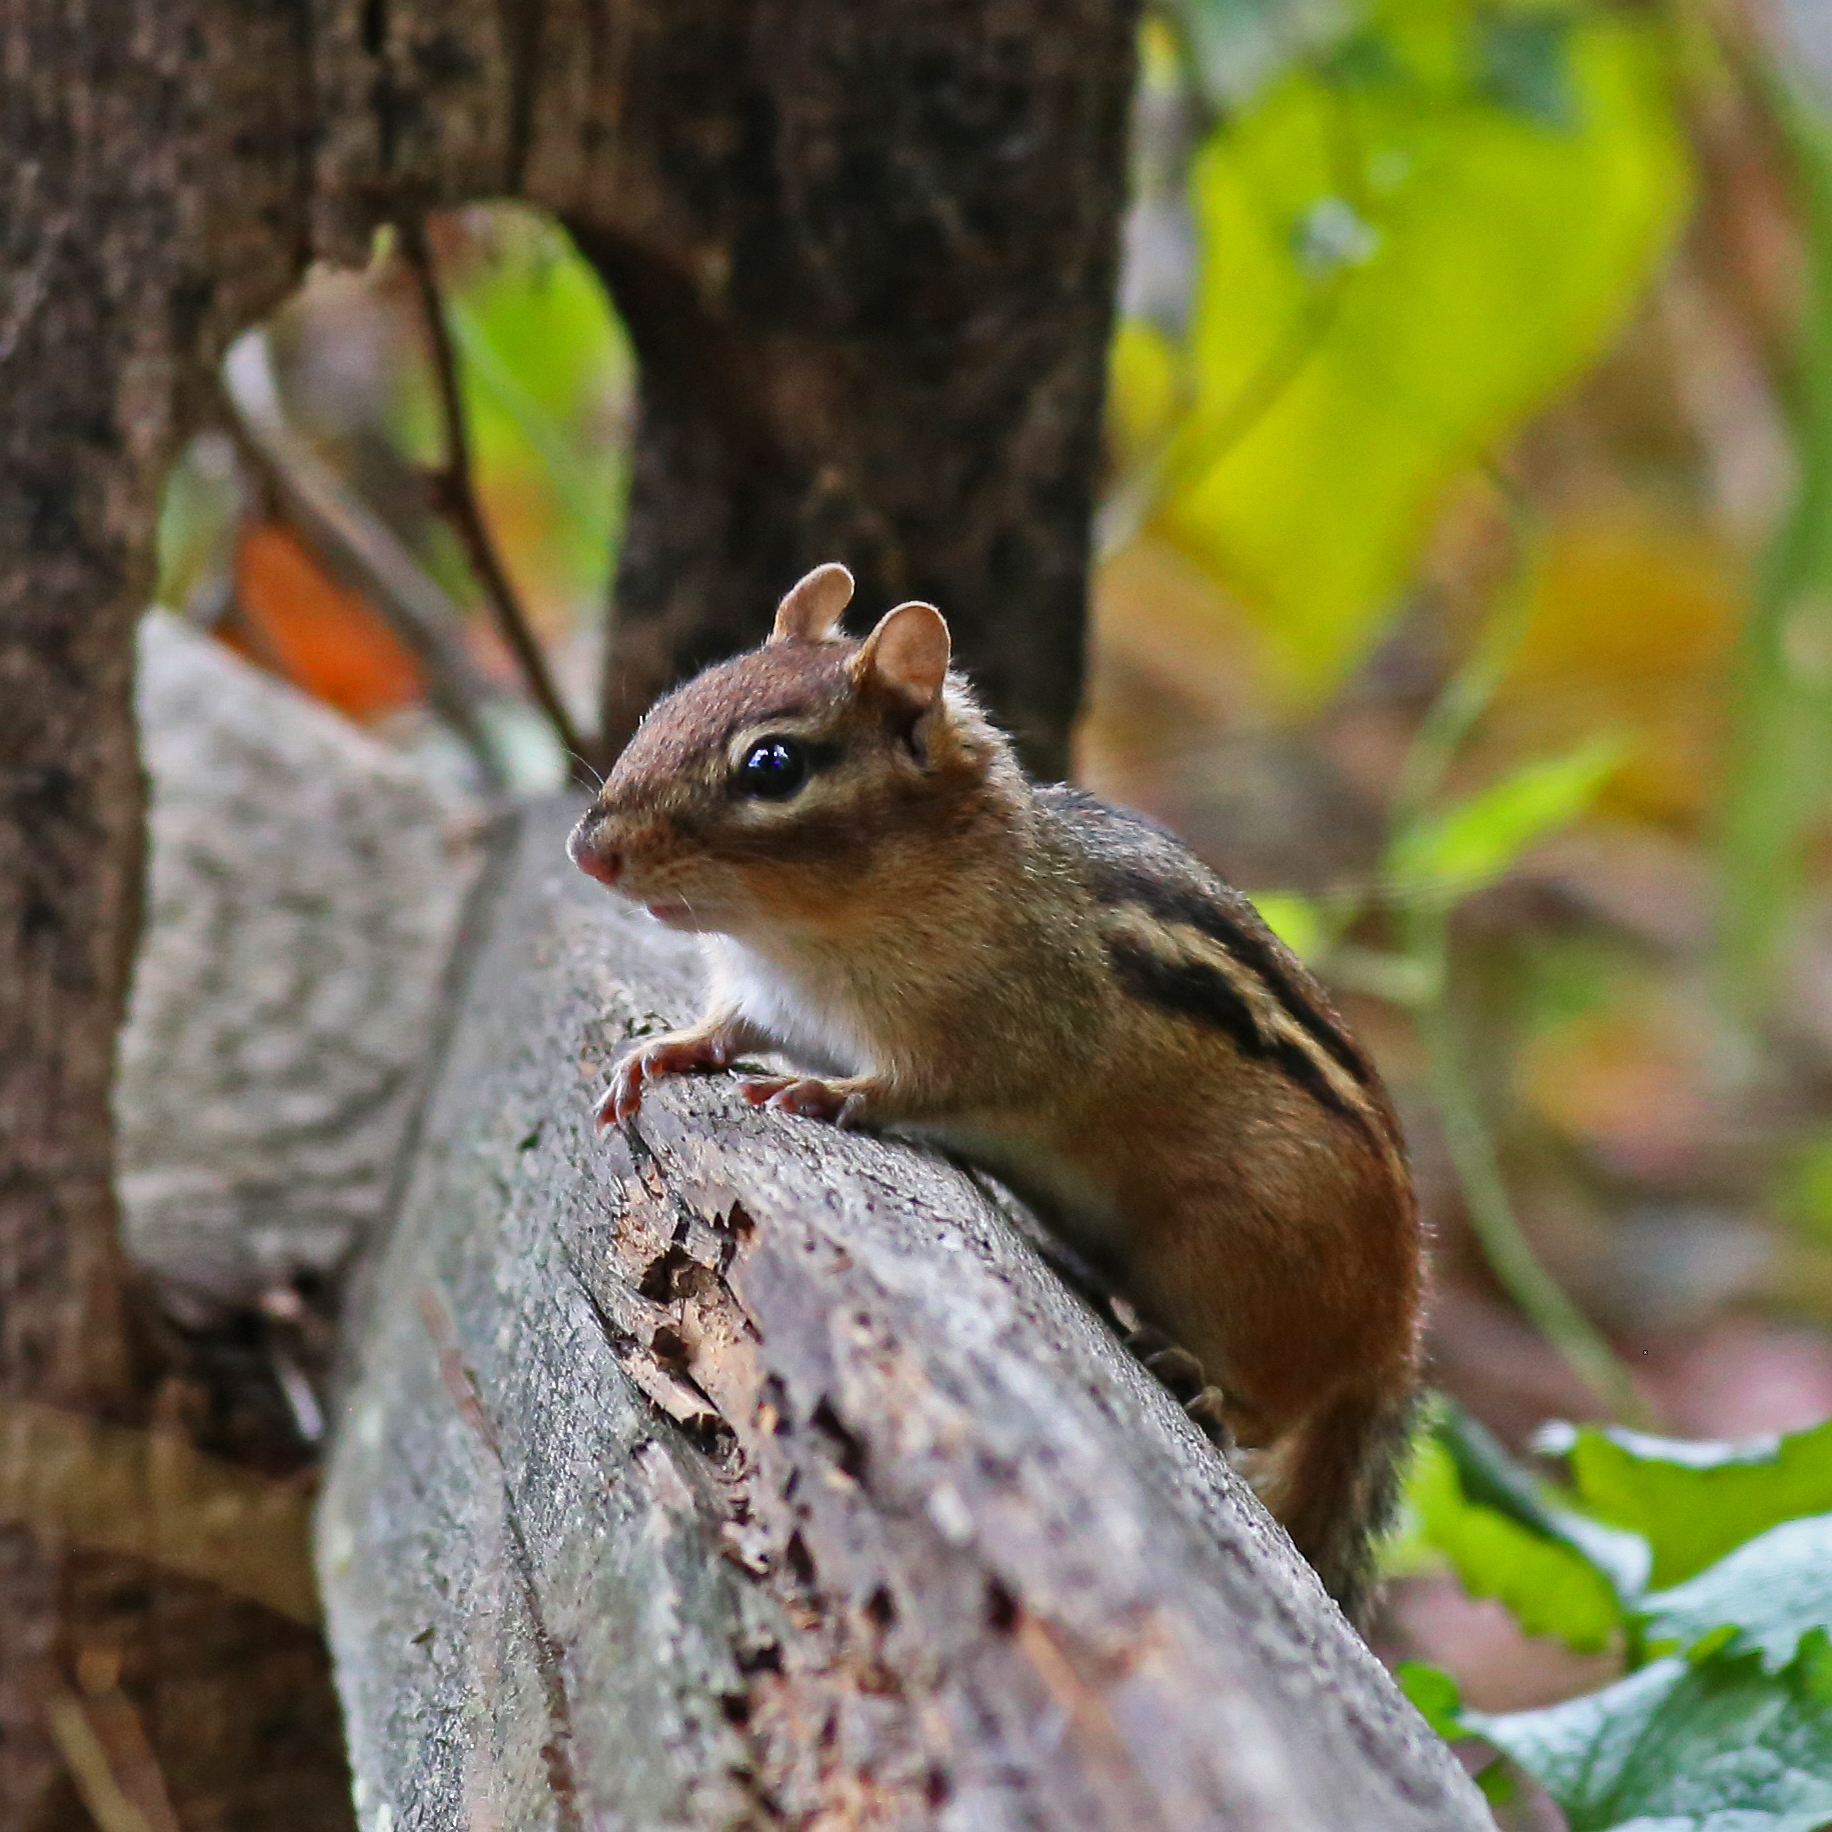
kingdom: Animalia
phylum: Chordata
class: Mammalia
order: Rodentia
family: Sciuridae
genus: Tamias
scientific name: Tamias striatus
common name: Eastern chipmunk
